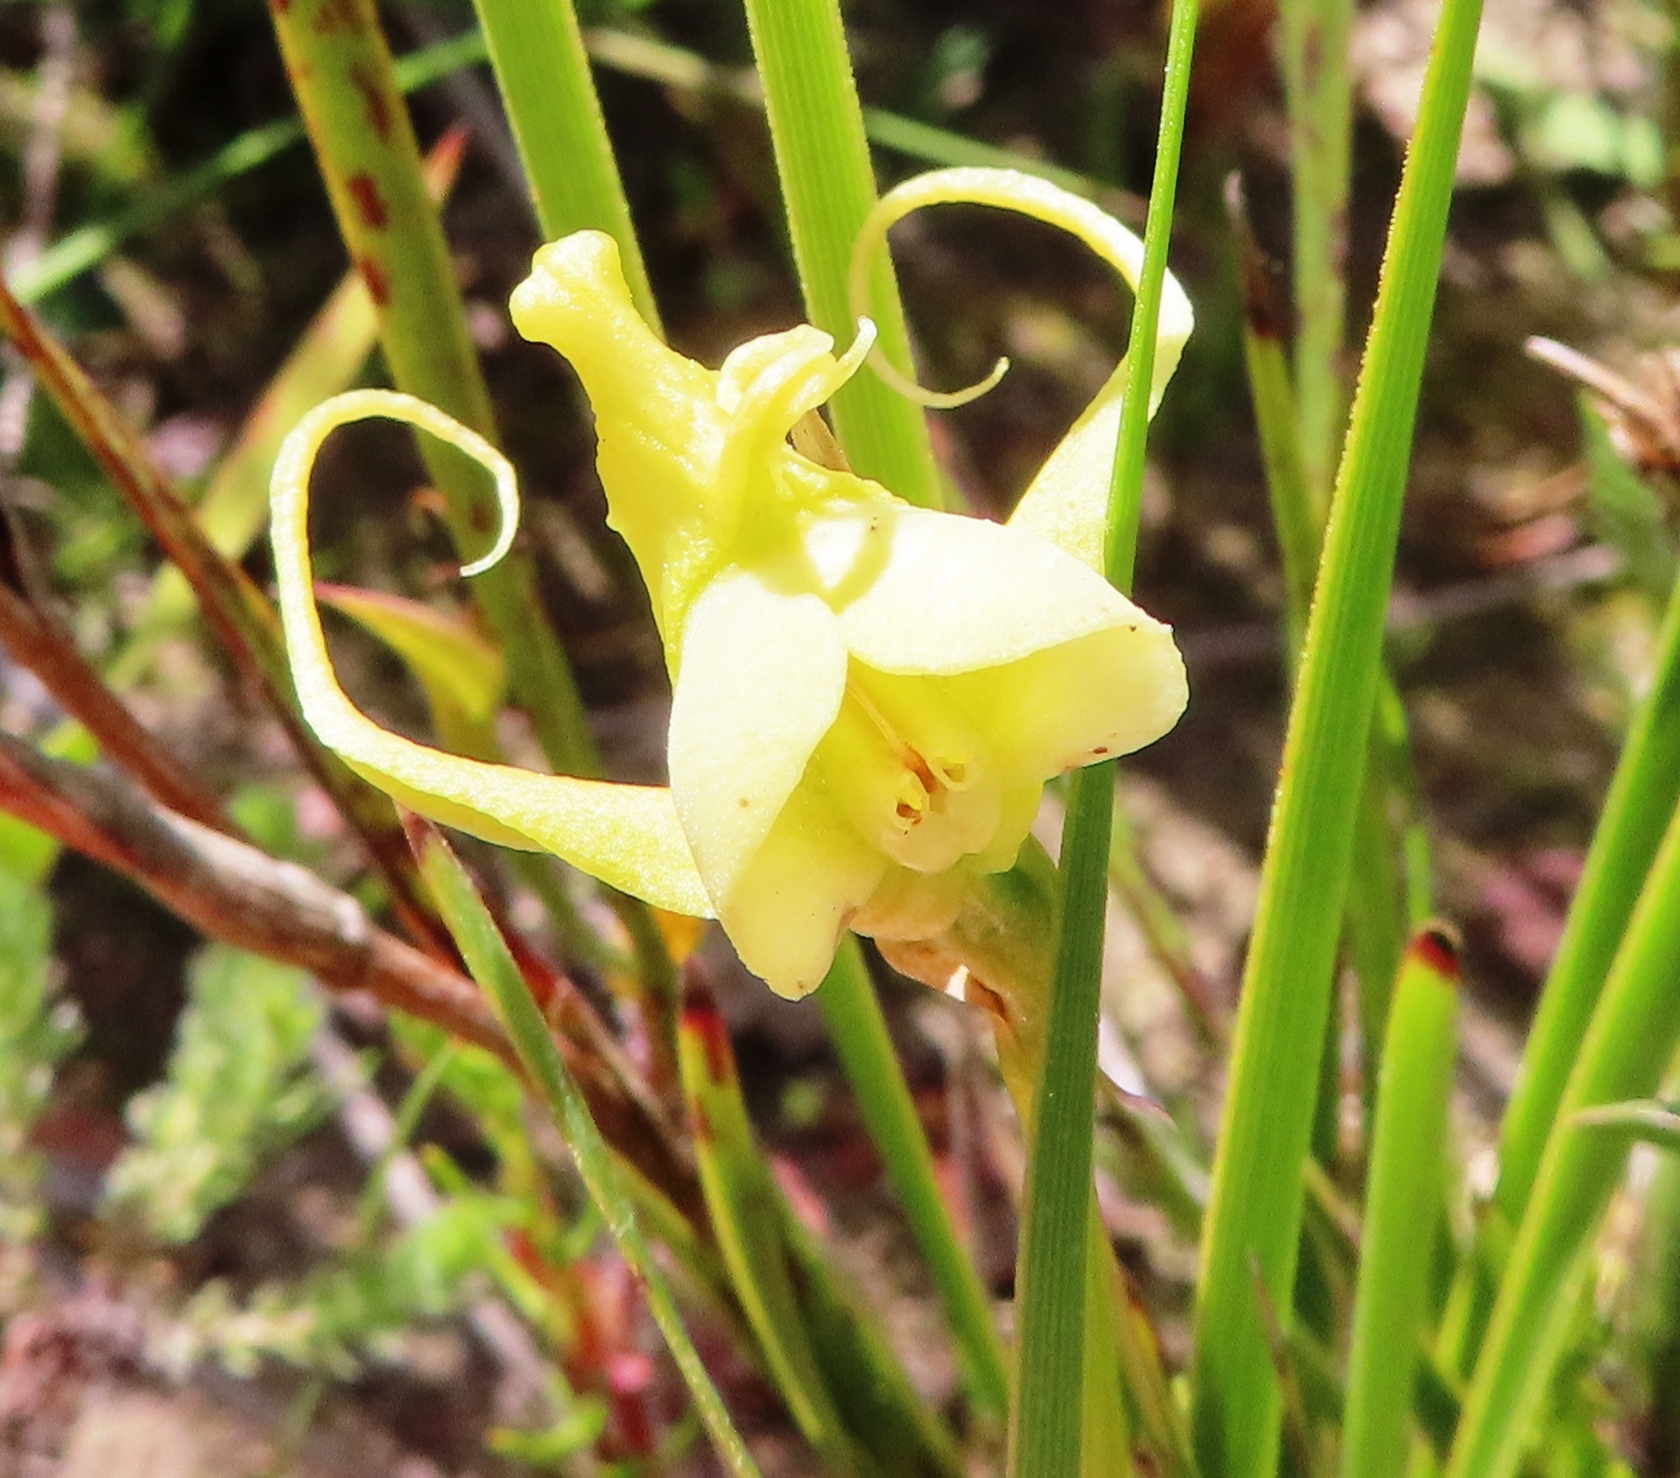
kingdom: Plantae
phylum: Tracheophyta
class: Liliopsida
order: Asparagales
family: Orchidaceae
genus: Disperis
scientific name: Disperis capensis
